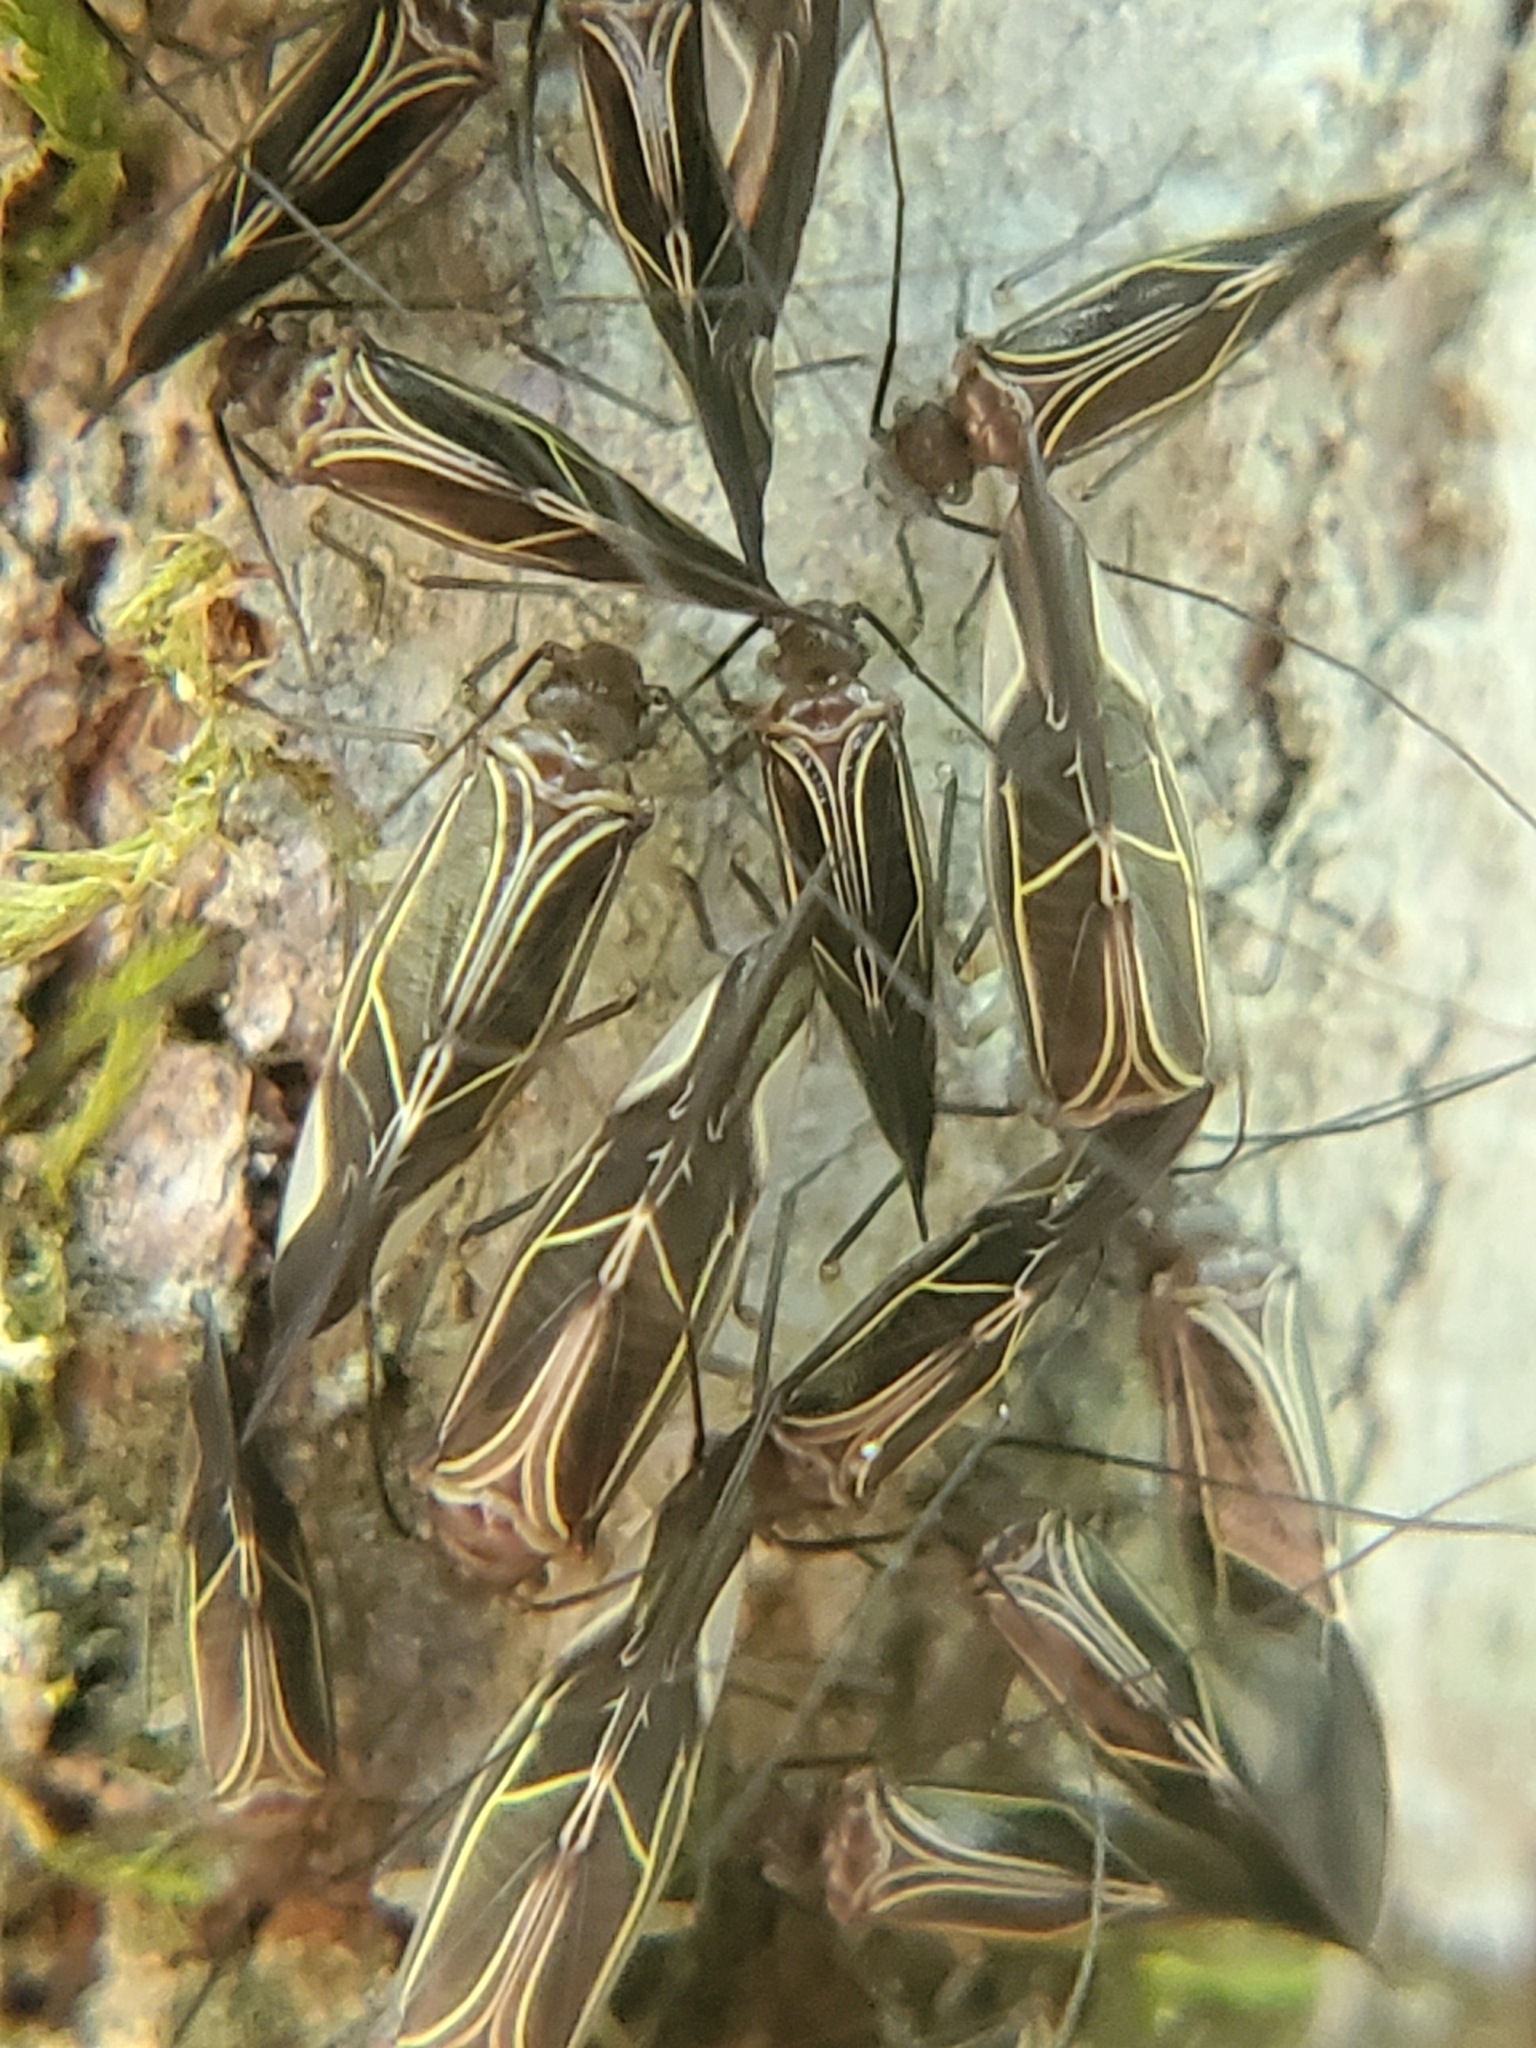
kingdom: Animalia
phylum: Arthropoda
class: Insecta
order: Psocodea
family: Psocidae
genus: Cerastipsocus
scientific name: Cerastipsocus venosus
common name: Tree cattle
